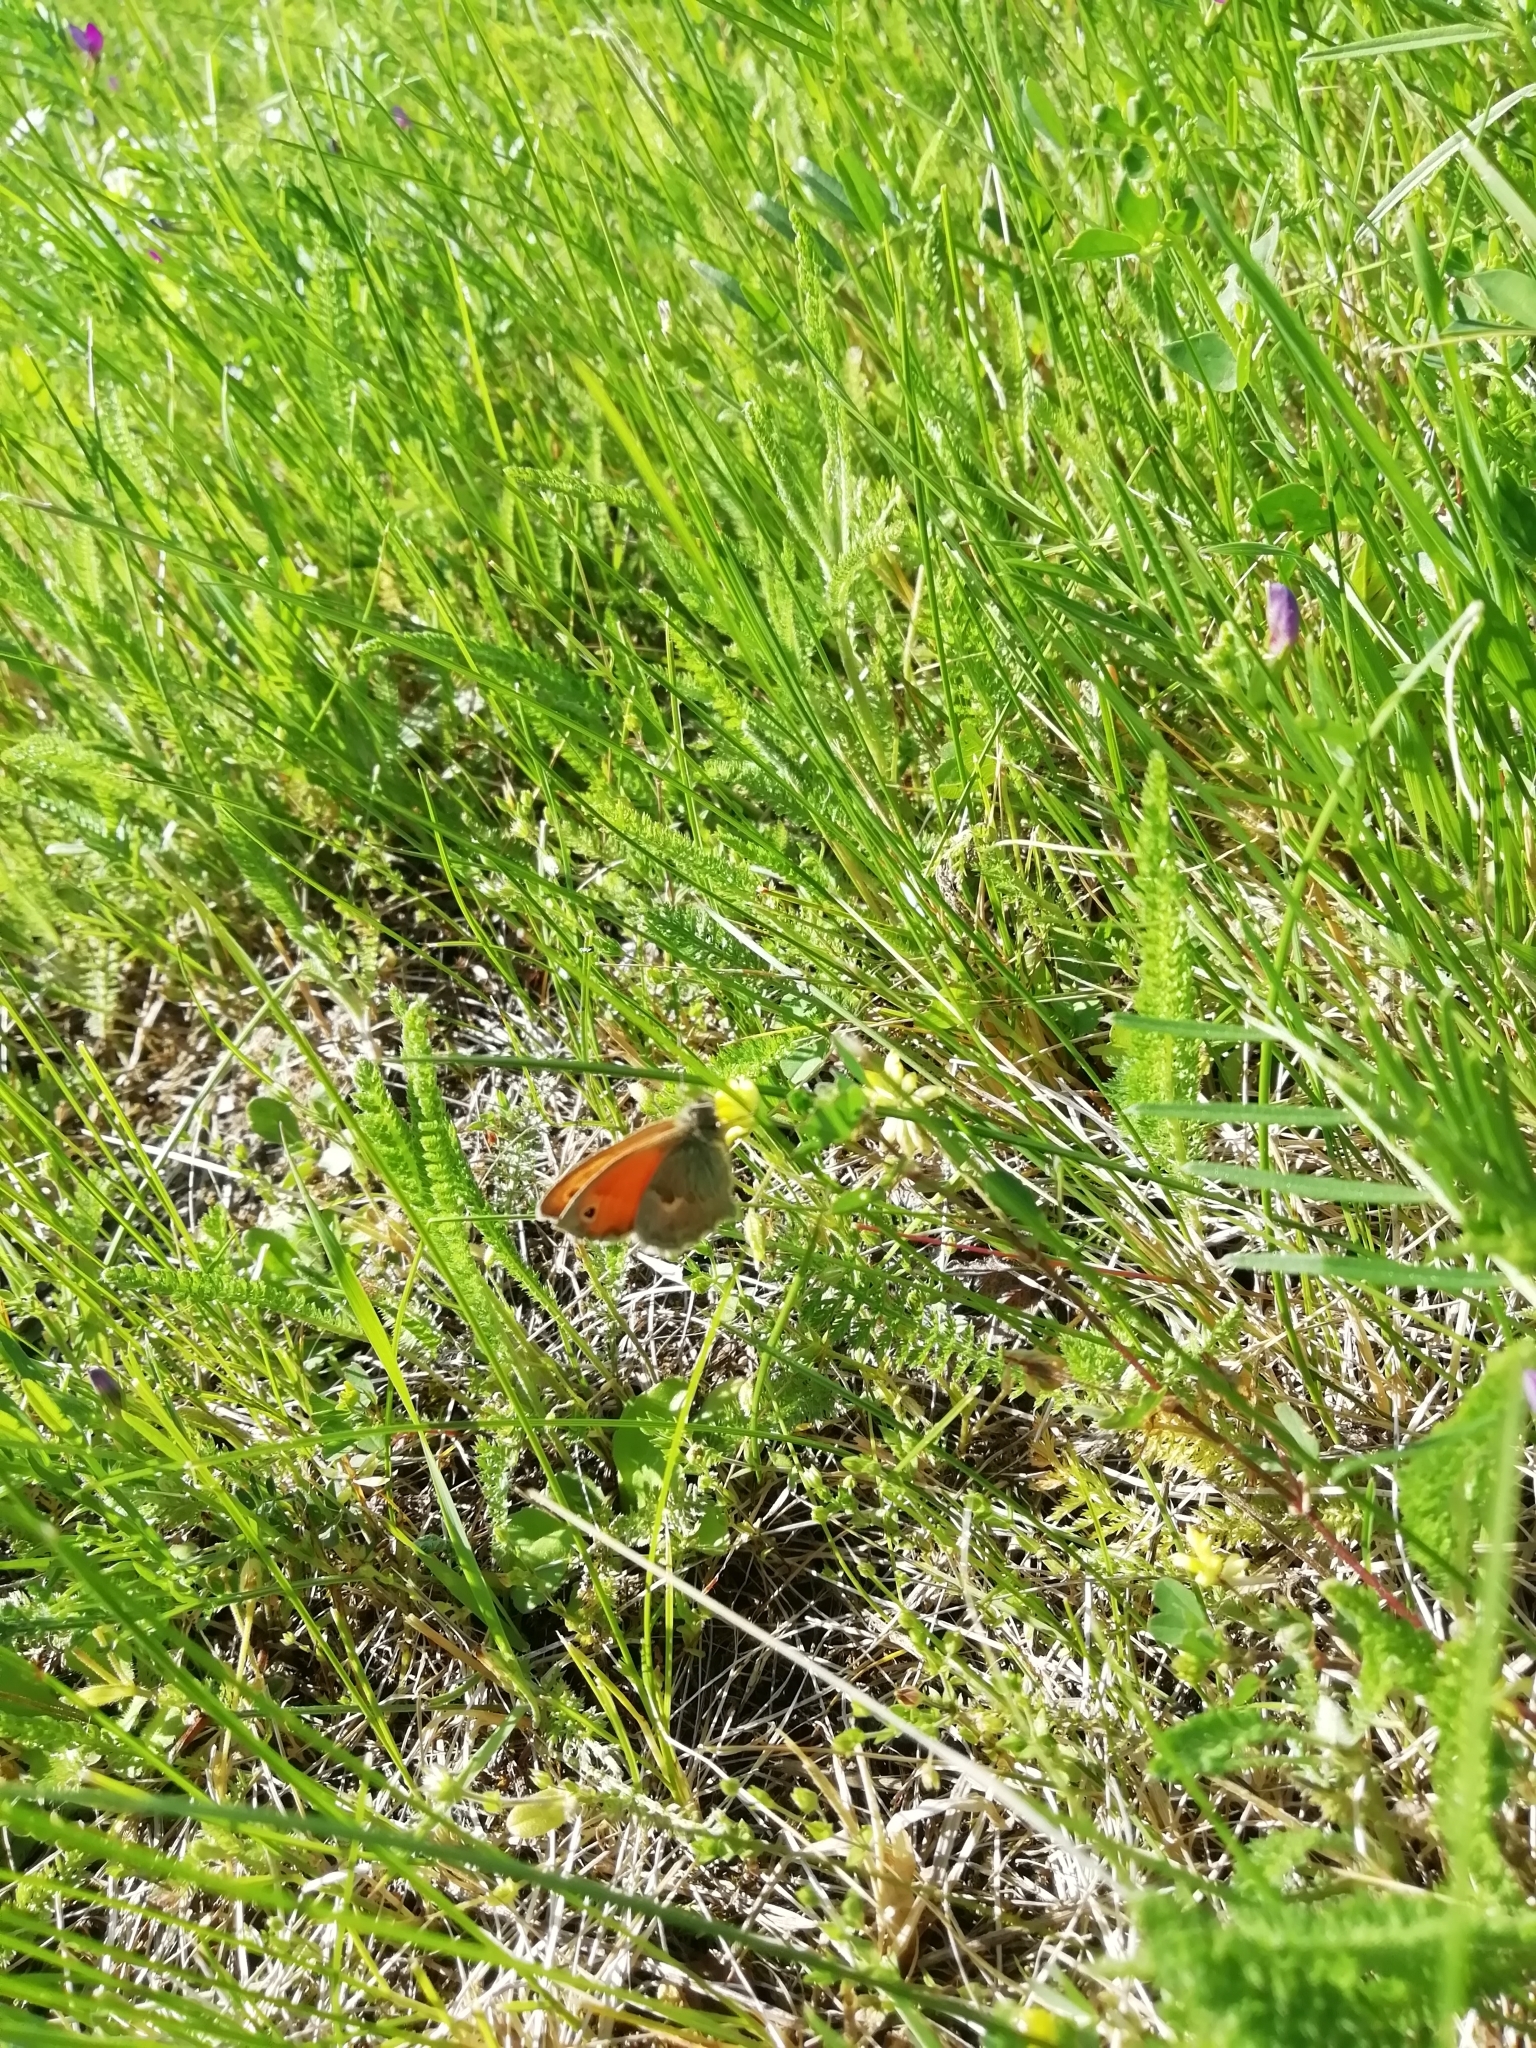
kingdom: Animalia
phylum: Arthropoda
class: Insecta
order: Lepidoptera
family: Nymphalidae
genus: Coenonympha
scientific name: Coenonympha pamphilus
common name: Small heath
